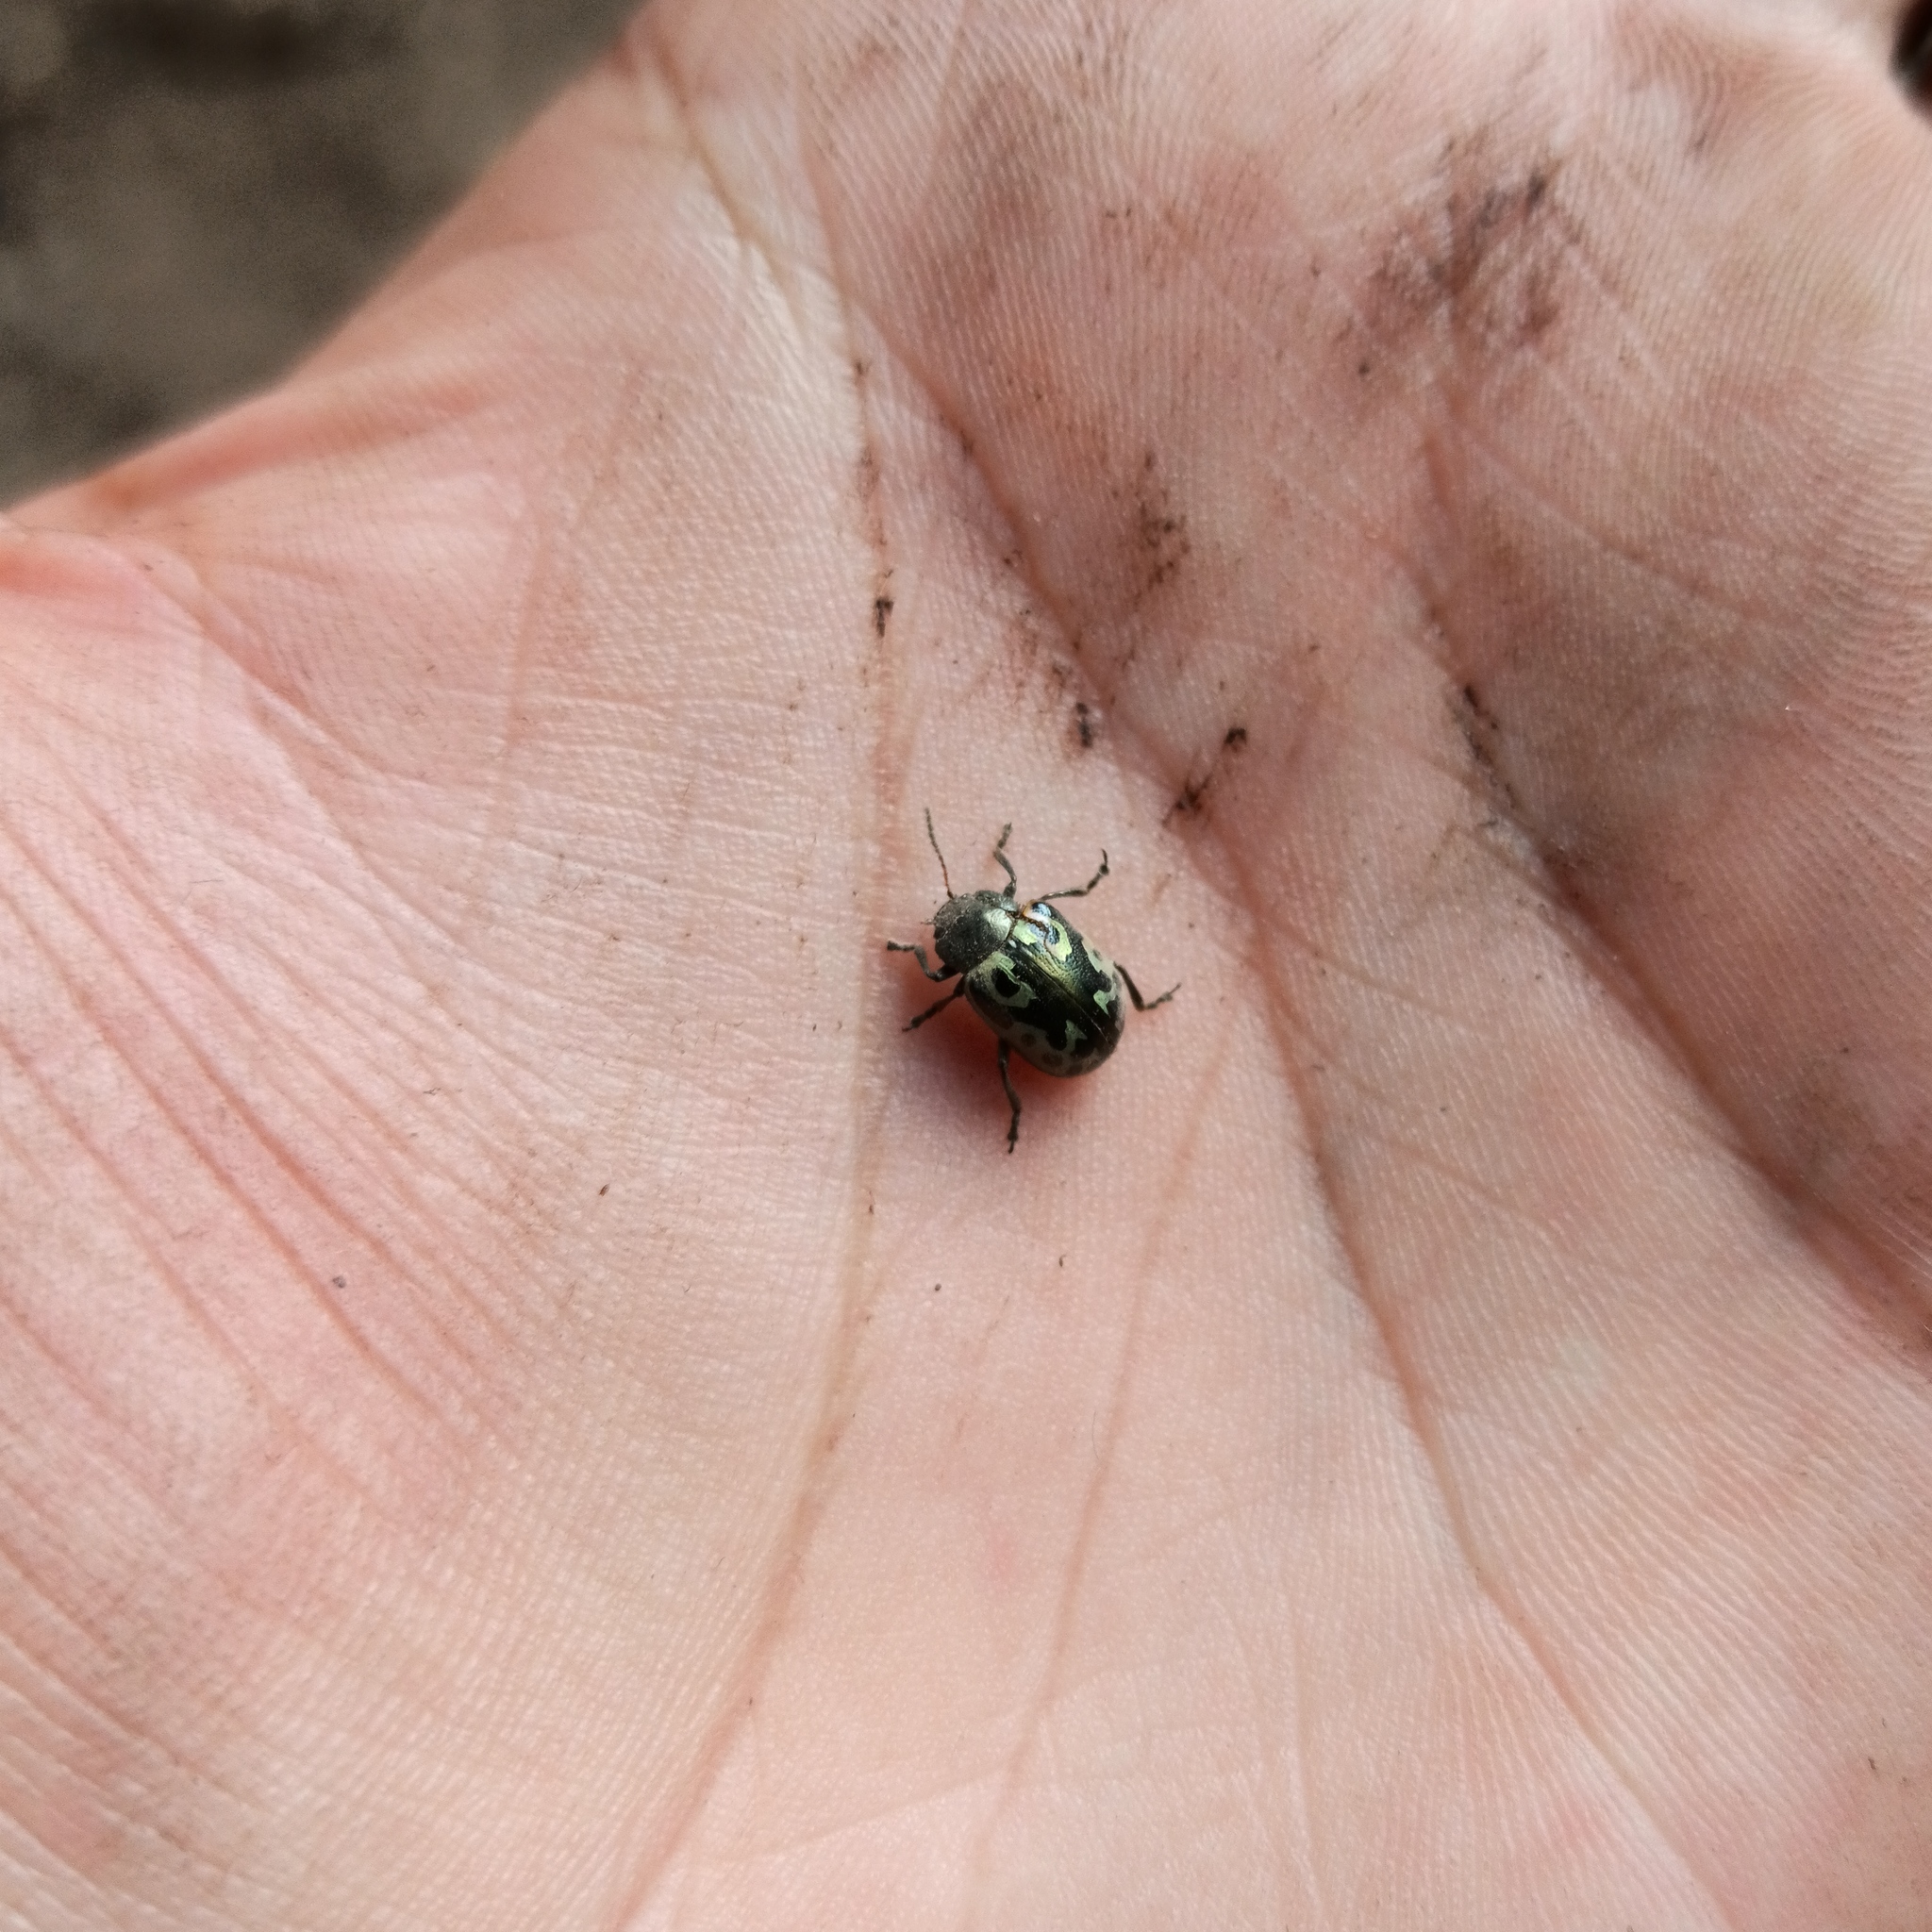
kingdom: Animalia
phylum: Arthropoda
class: Insecta
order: Coleoptera
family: Chrysomelidae
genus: Calligrapha
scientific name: Calligrapha
